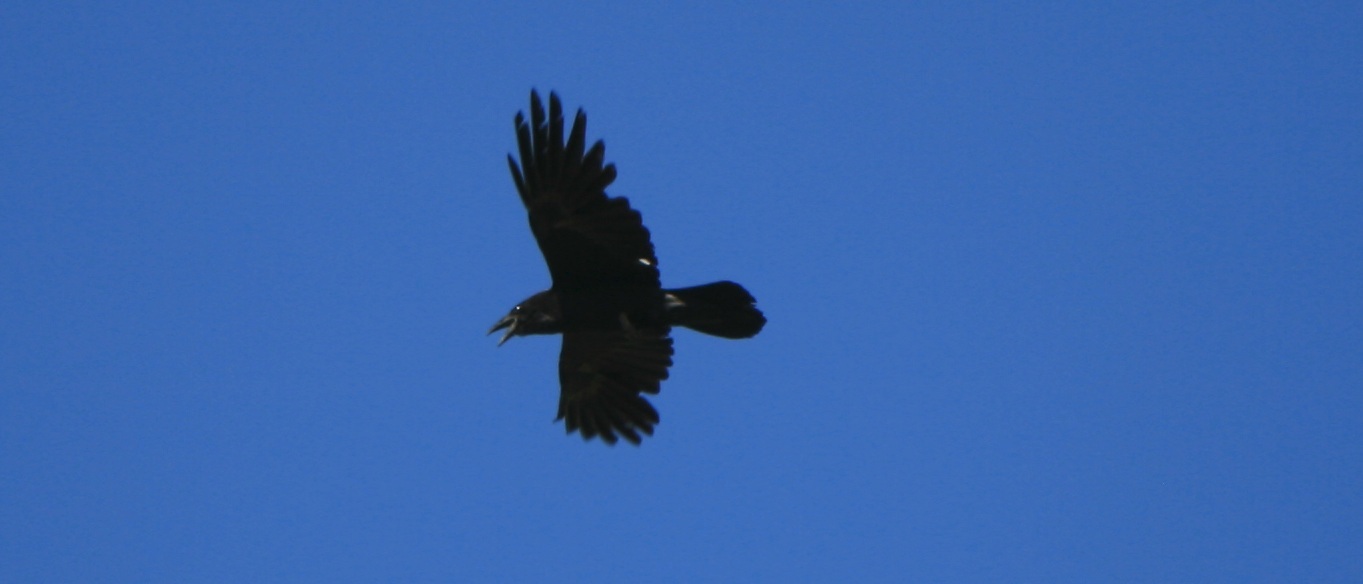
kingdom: Animalia
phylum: Chordata
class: Aves
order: Passeriformes
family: Corvidae
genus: Corvus
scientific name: Corvus corax
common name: Common raven
